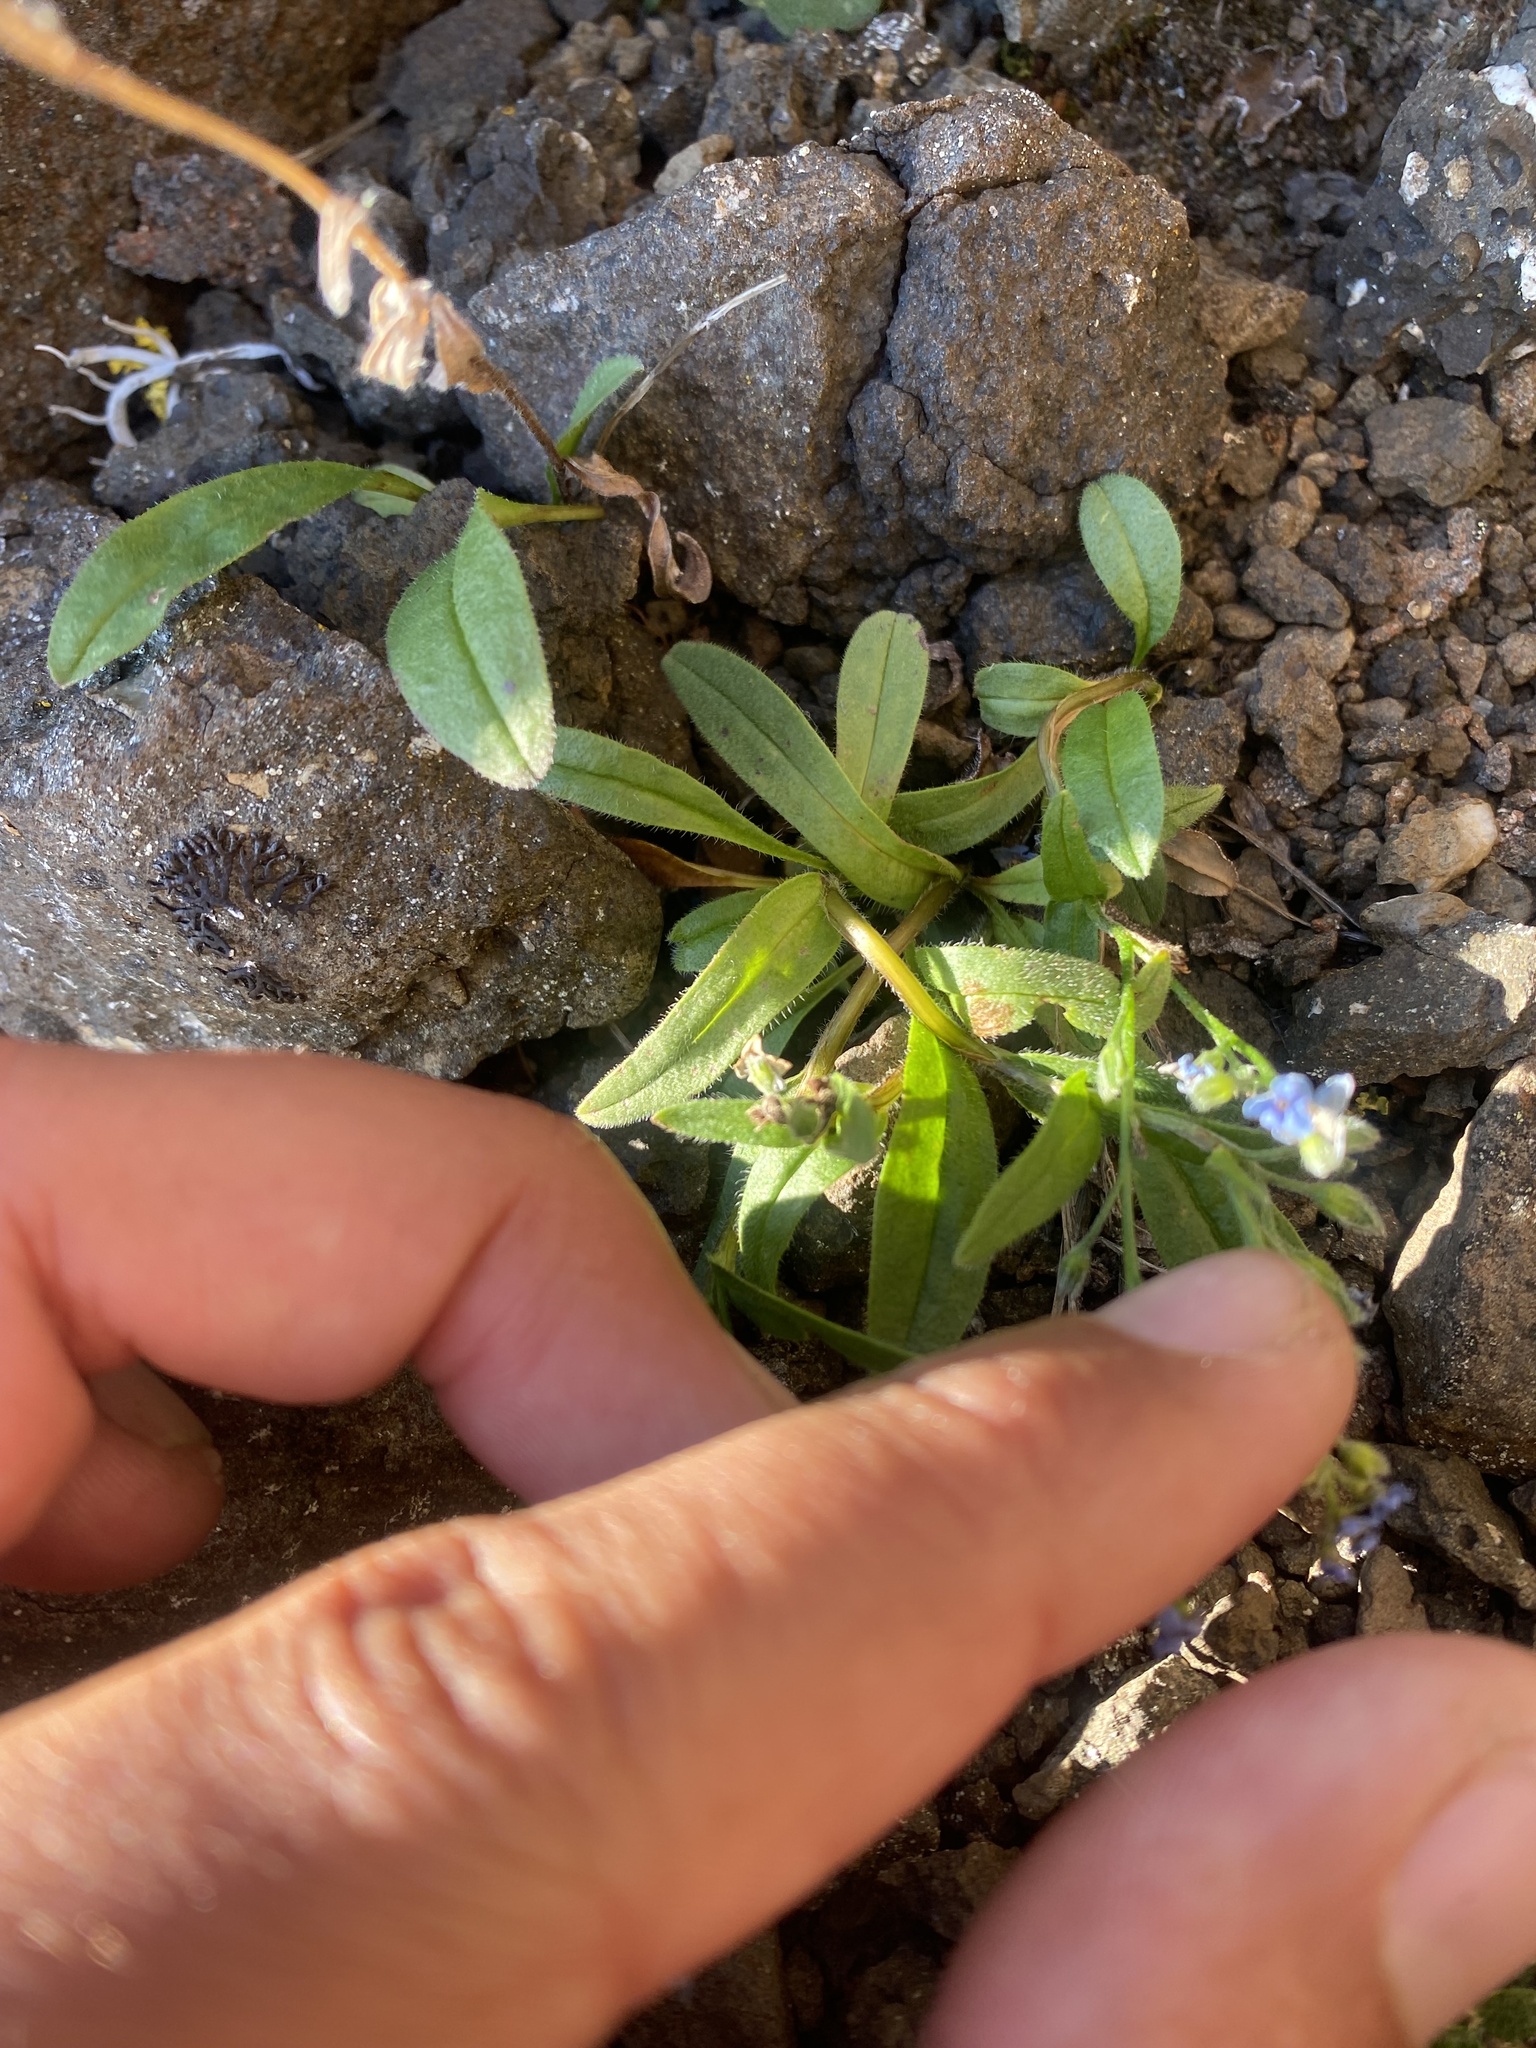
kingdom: Plantae
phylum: Tracheophyta
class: Magnoliopsida
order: Boraginales
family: Boraginaceae
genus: Myosotis
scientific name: Myosotis asiatica
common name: Asian forget-me-not
